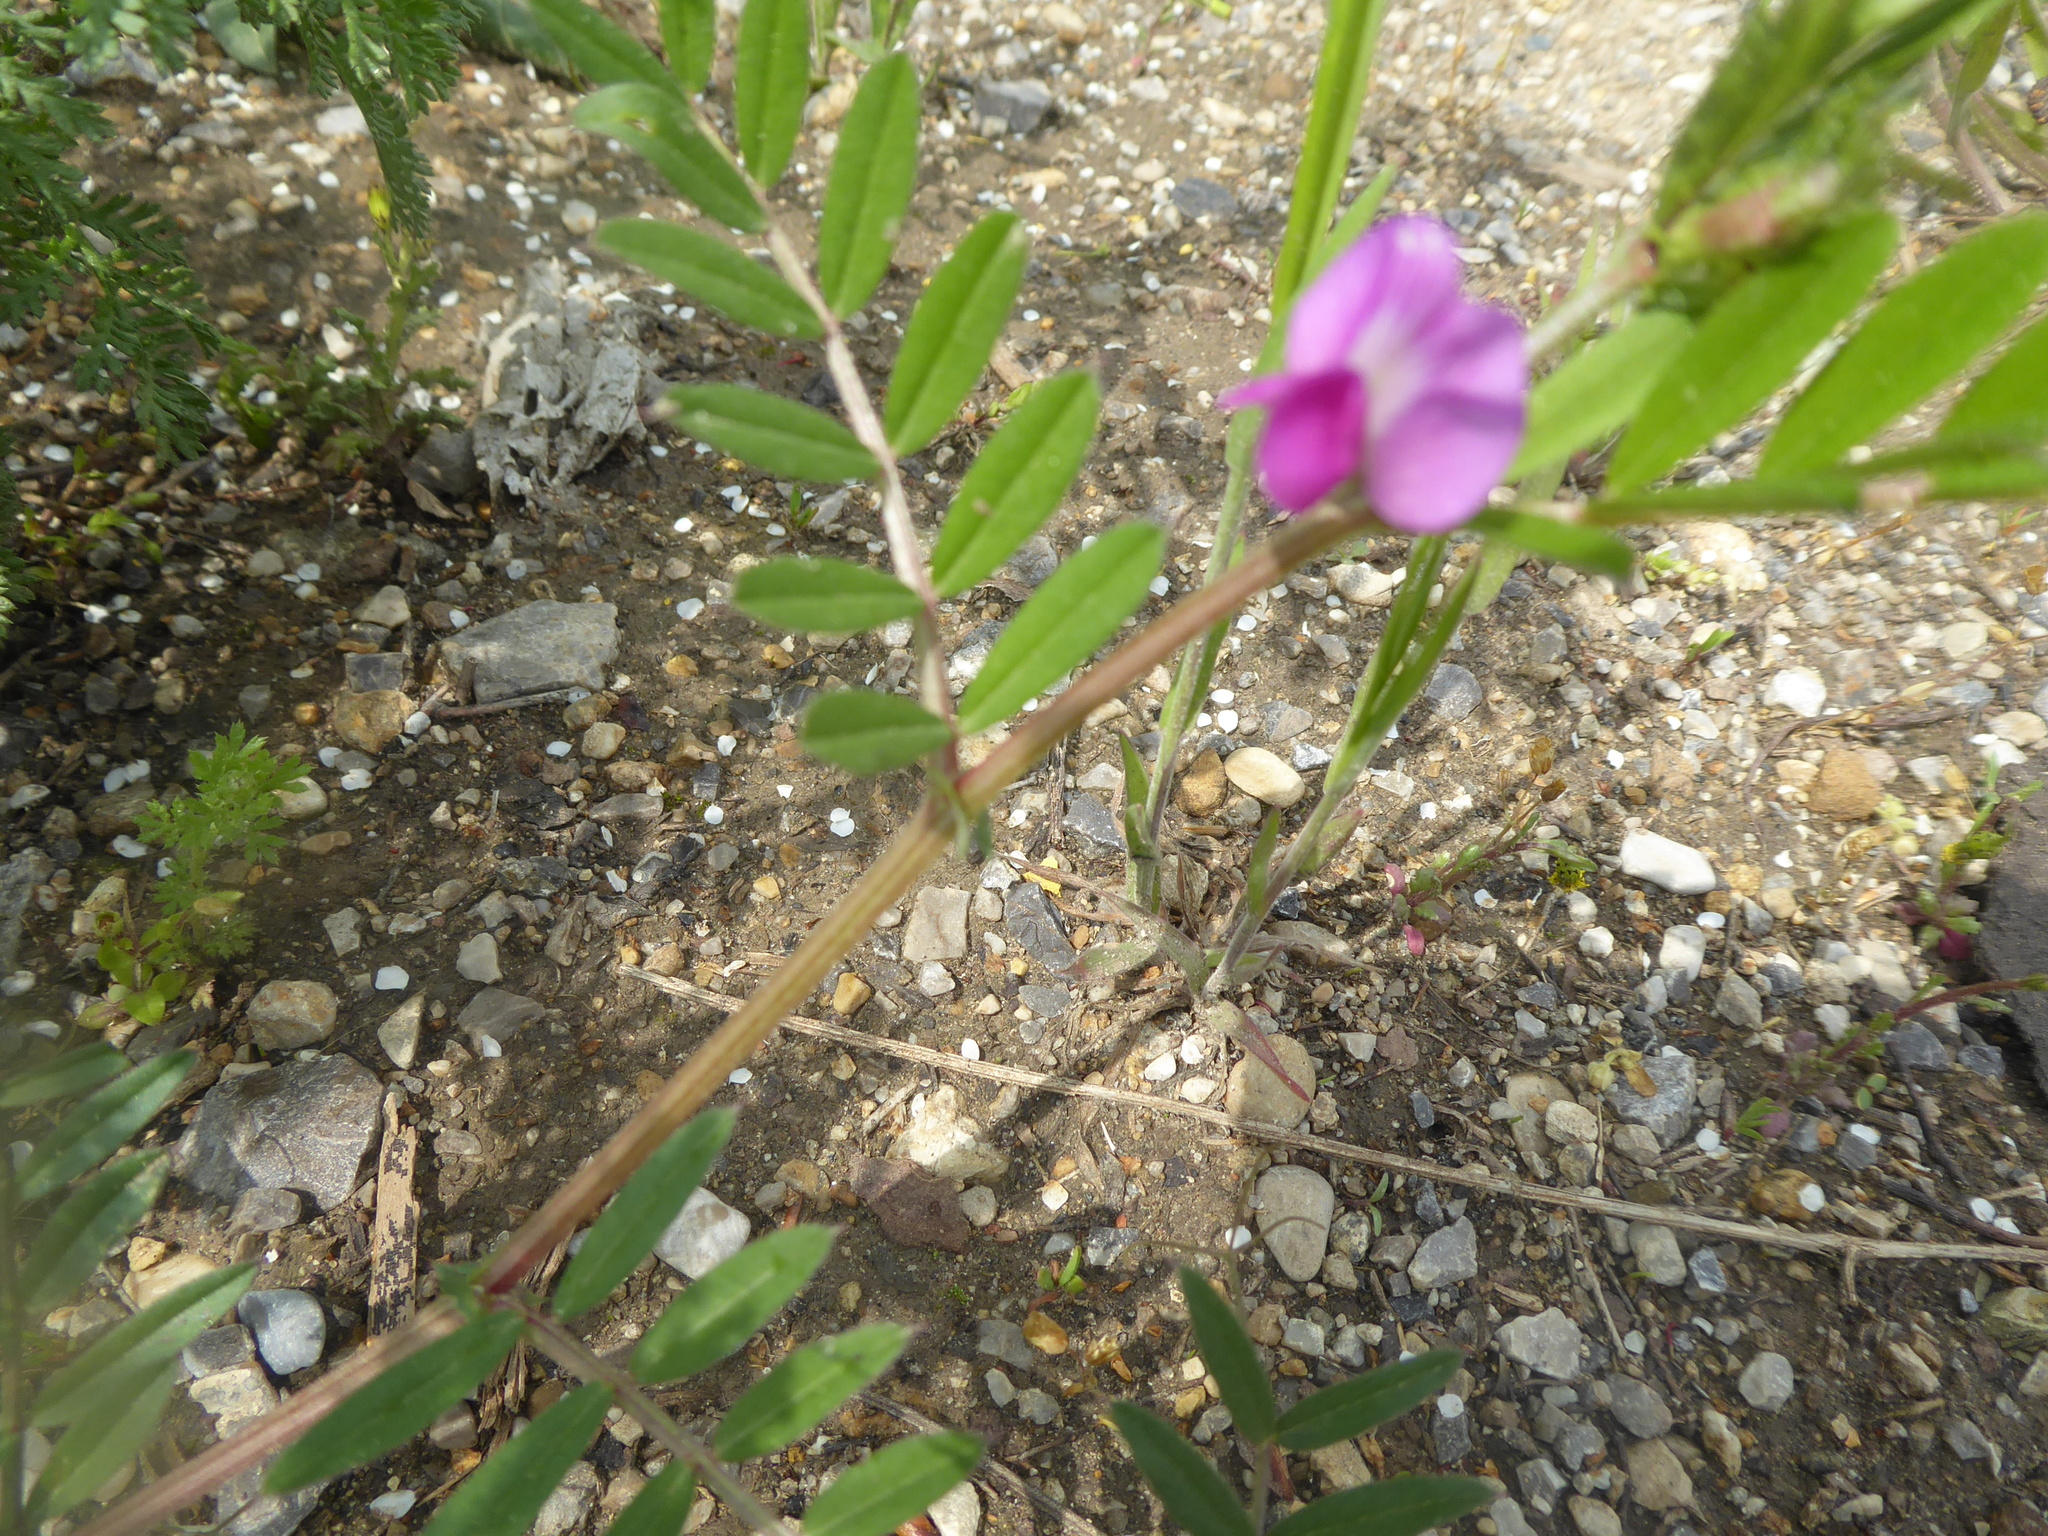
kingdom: Plantae
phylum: Tracheophyta
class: Magnoliopsida
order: Fabales
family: Fabaceae
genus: Vicia
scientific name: Vicia sativa
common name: Garden vetch
